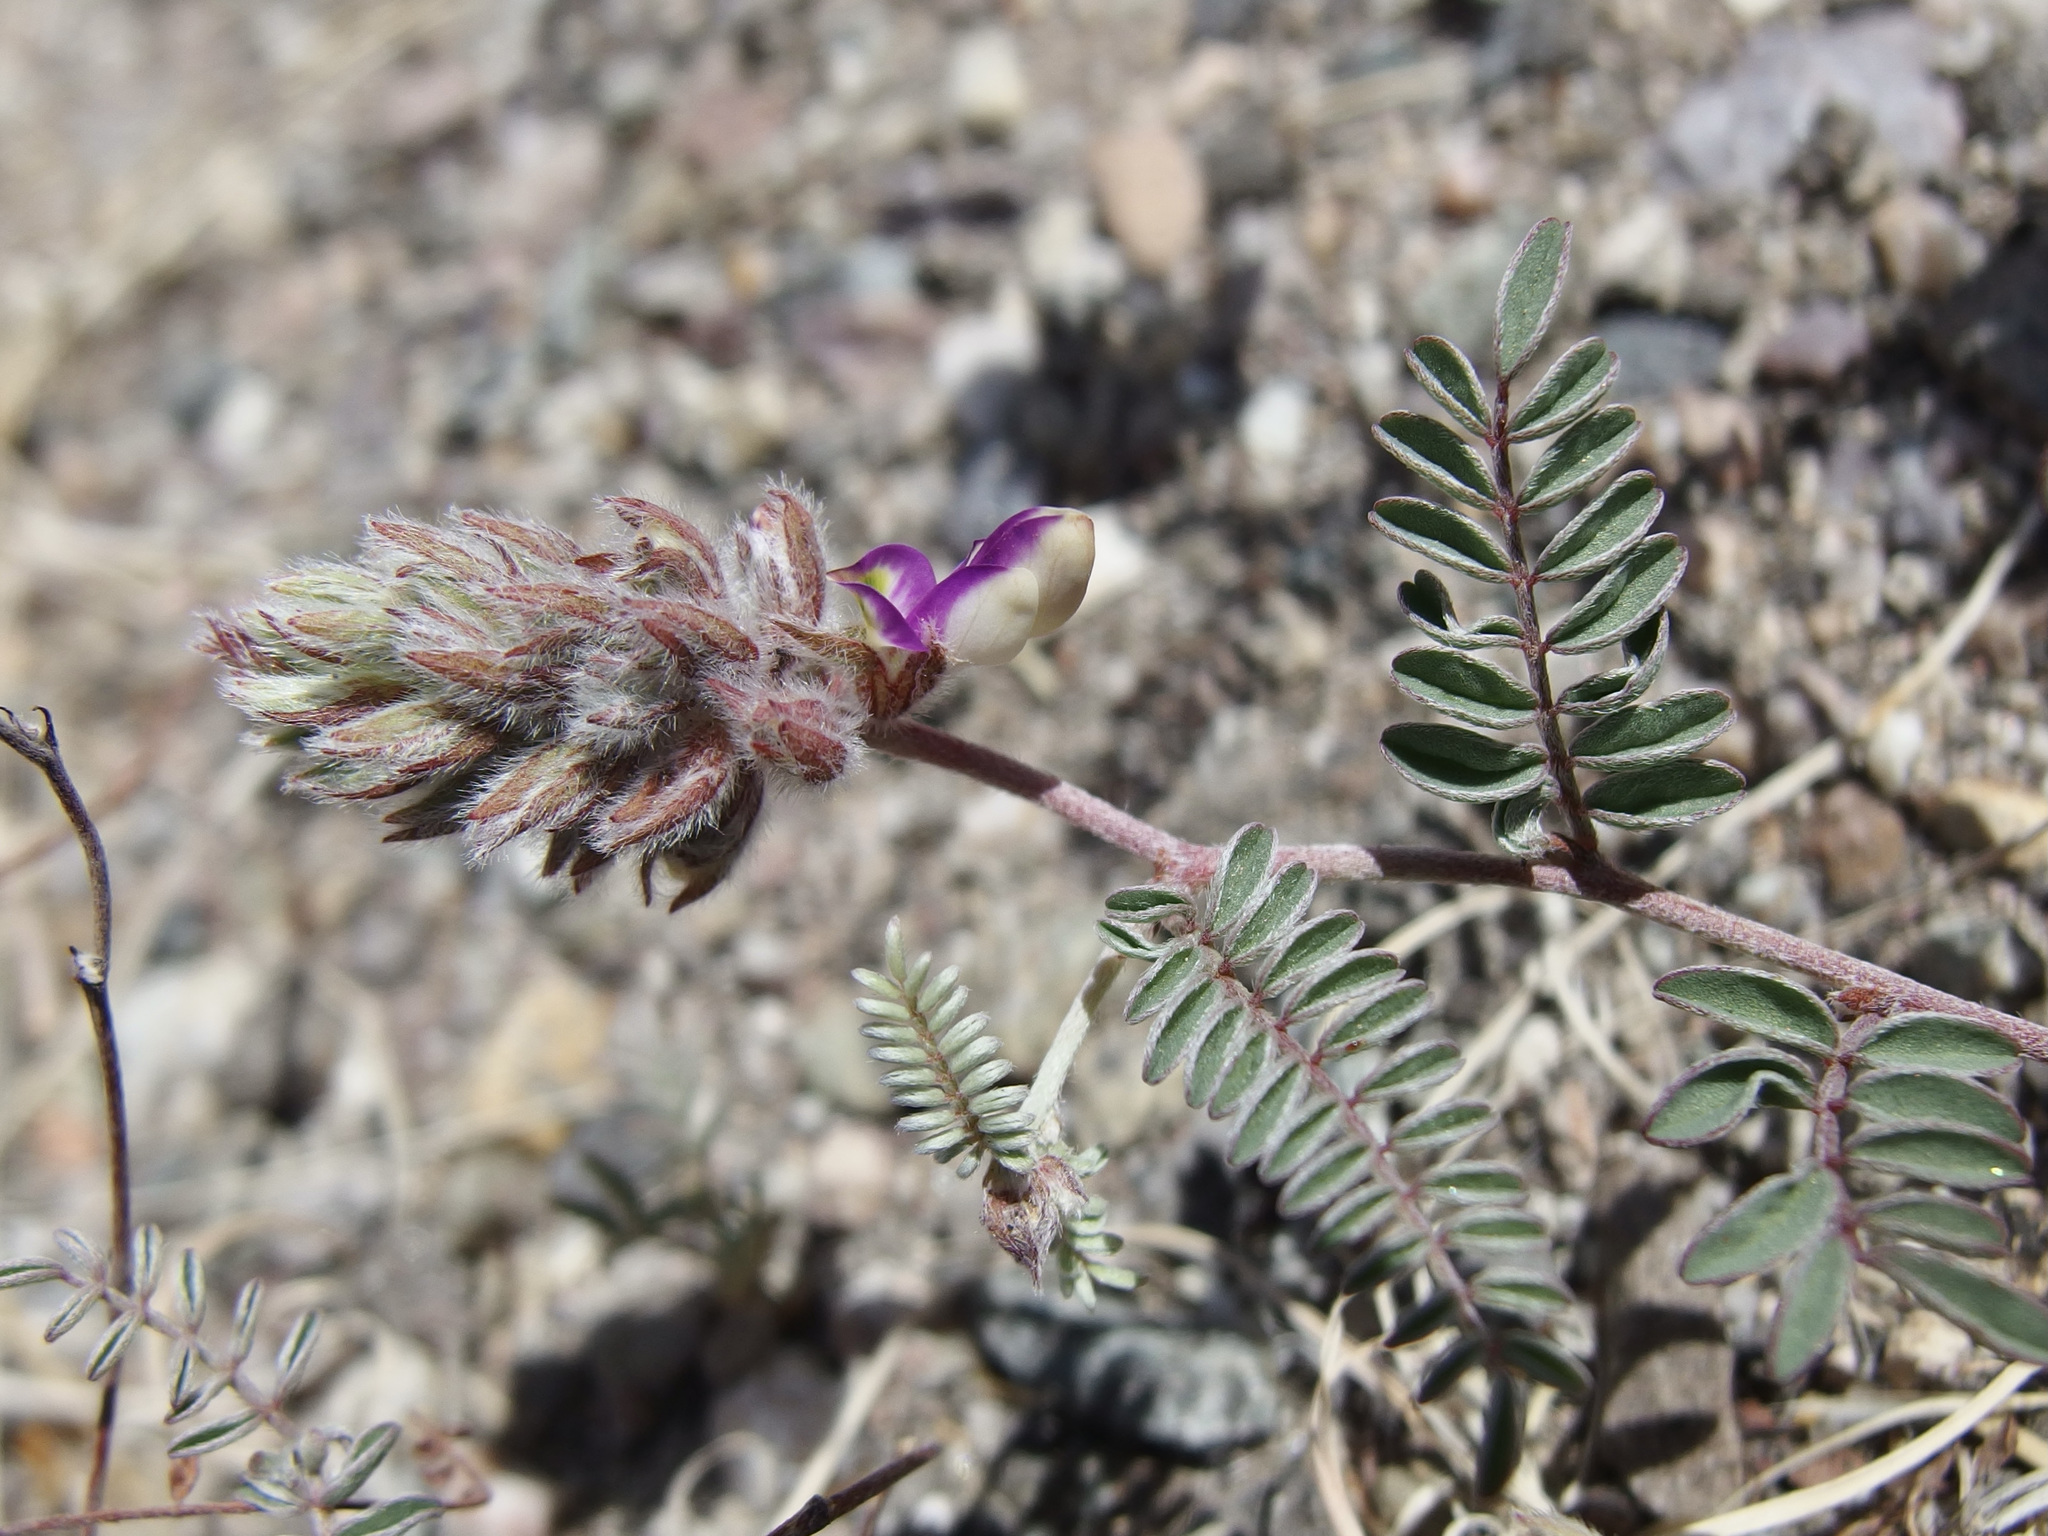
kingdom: Plantae
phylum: Tracheophyta
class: Magnoliopsida
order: Fabales
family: Fabaceae
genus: Marina
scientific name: Marina calycosa
